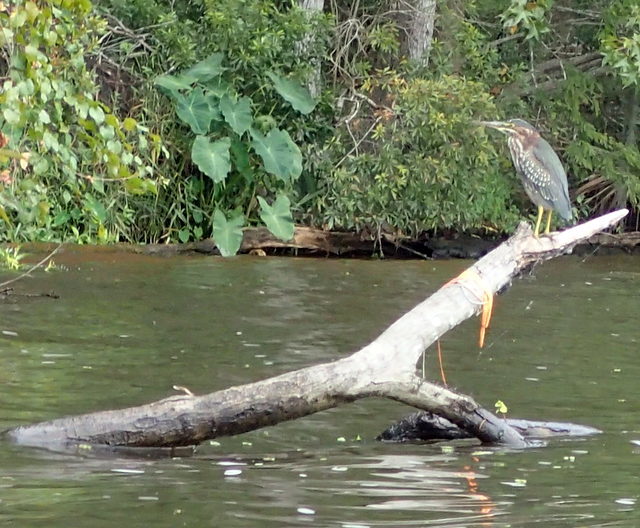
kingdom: Animalia
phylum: Chordata
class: Aves
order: Pelecaniformes
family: Ardeidae
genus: Butorides
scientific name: Butorides virescens
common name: Green heron
